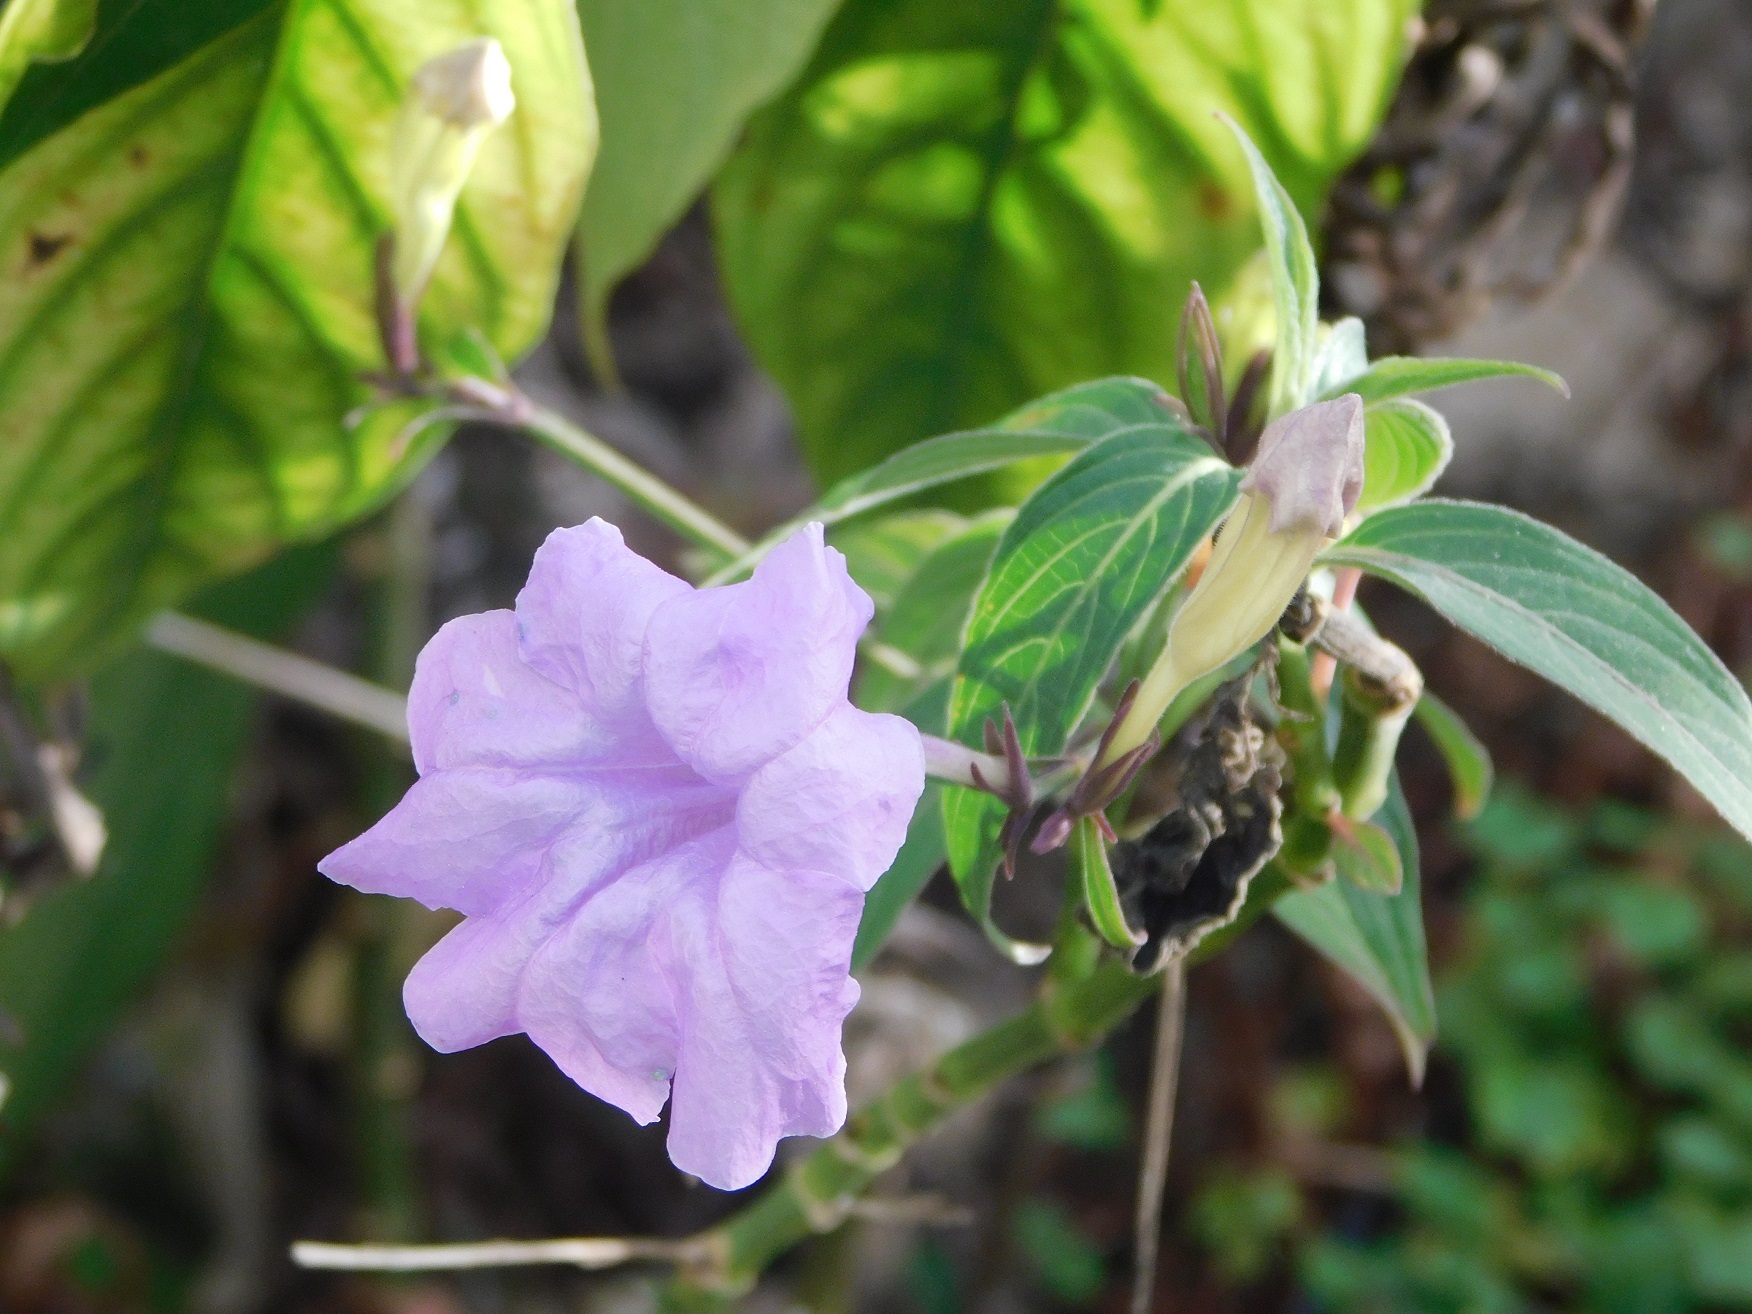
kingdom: Plantae
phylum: Tracheophyta
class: Magnoliopsida
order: Lamiales
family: Acanthaceae
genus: Ruellia
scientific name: Ruellia breedlovei
